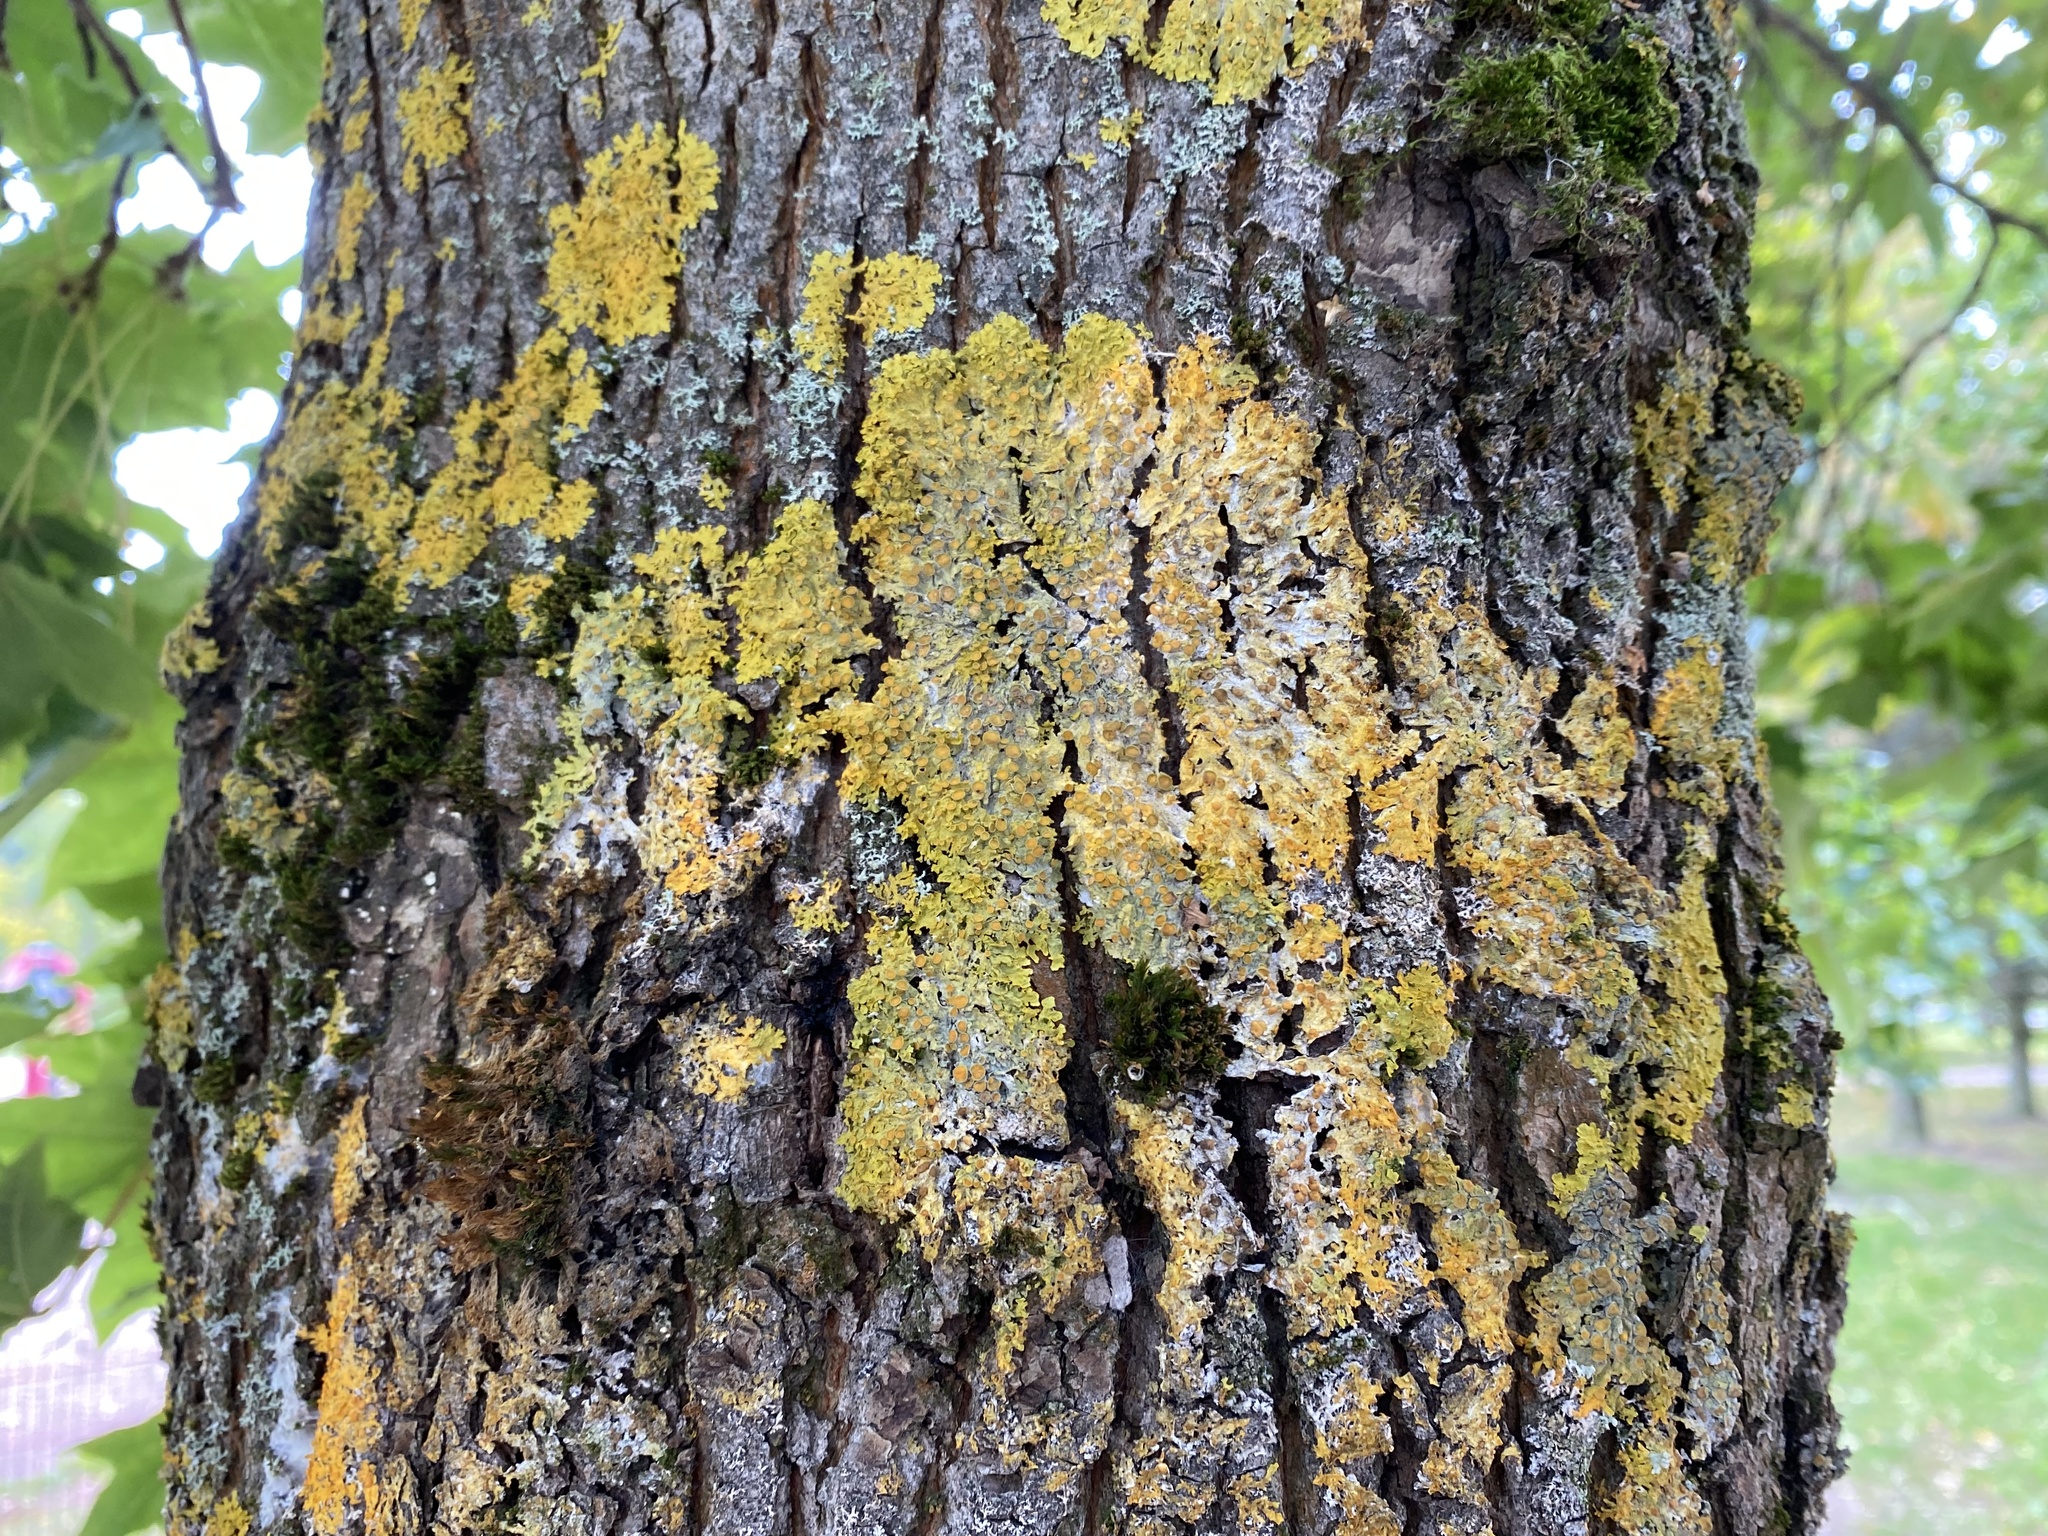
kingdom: Fungi
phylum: Ascomycota
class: Lecanoromycetes
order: Teloschistales
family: Teloschistaceae
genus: Xanthoria
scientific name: Xanthoria parietina
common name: Common orange lichen
